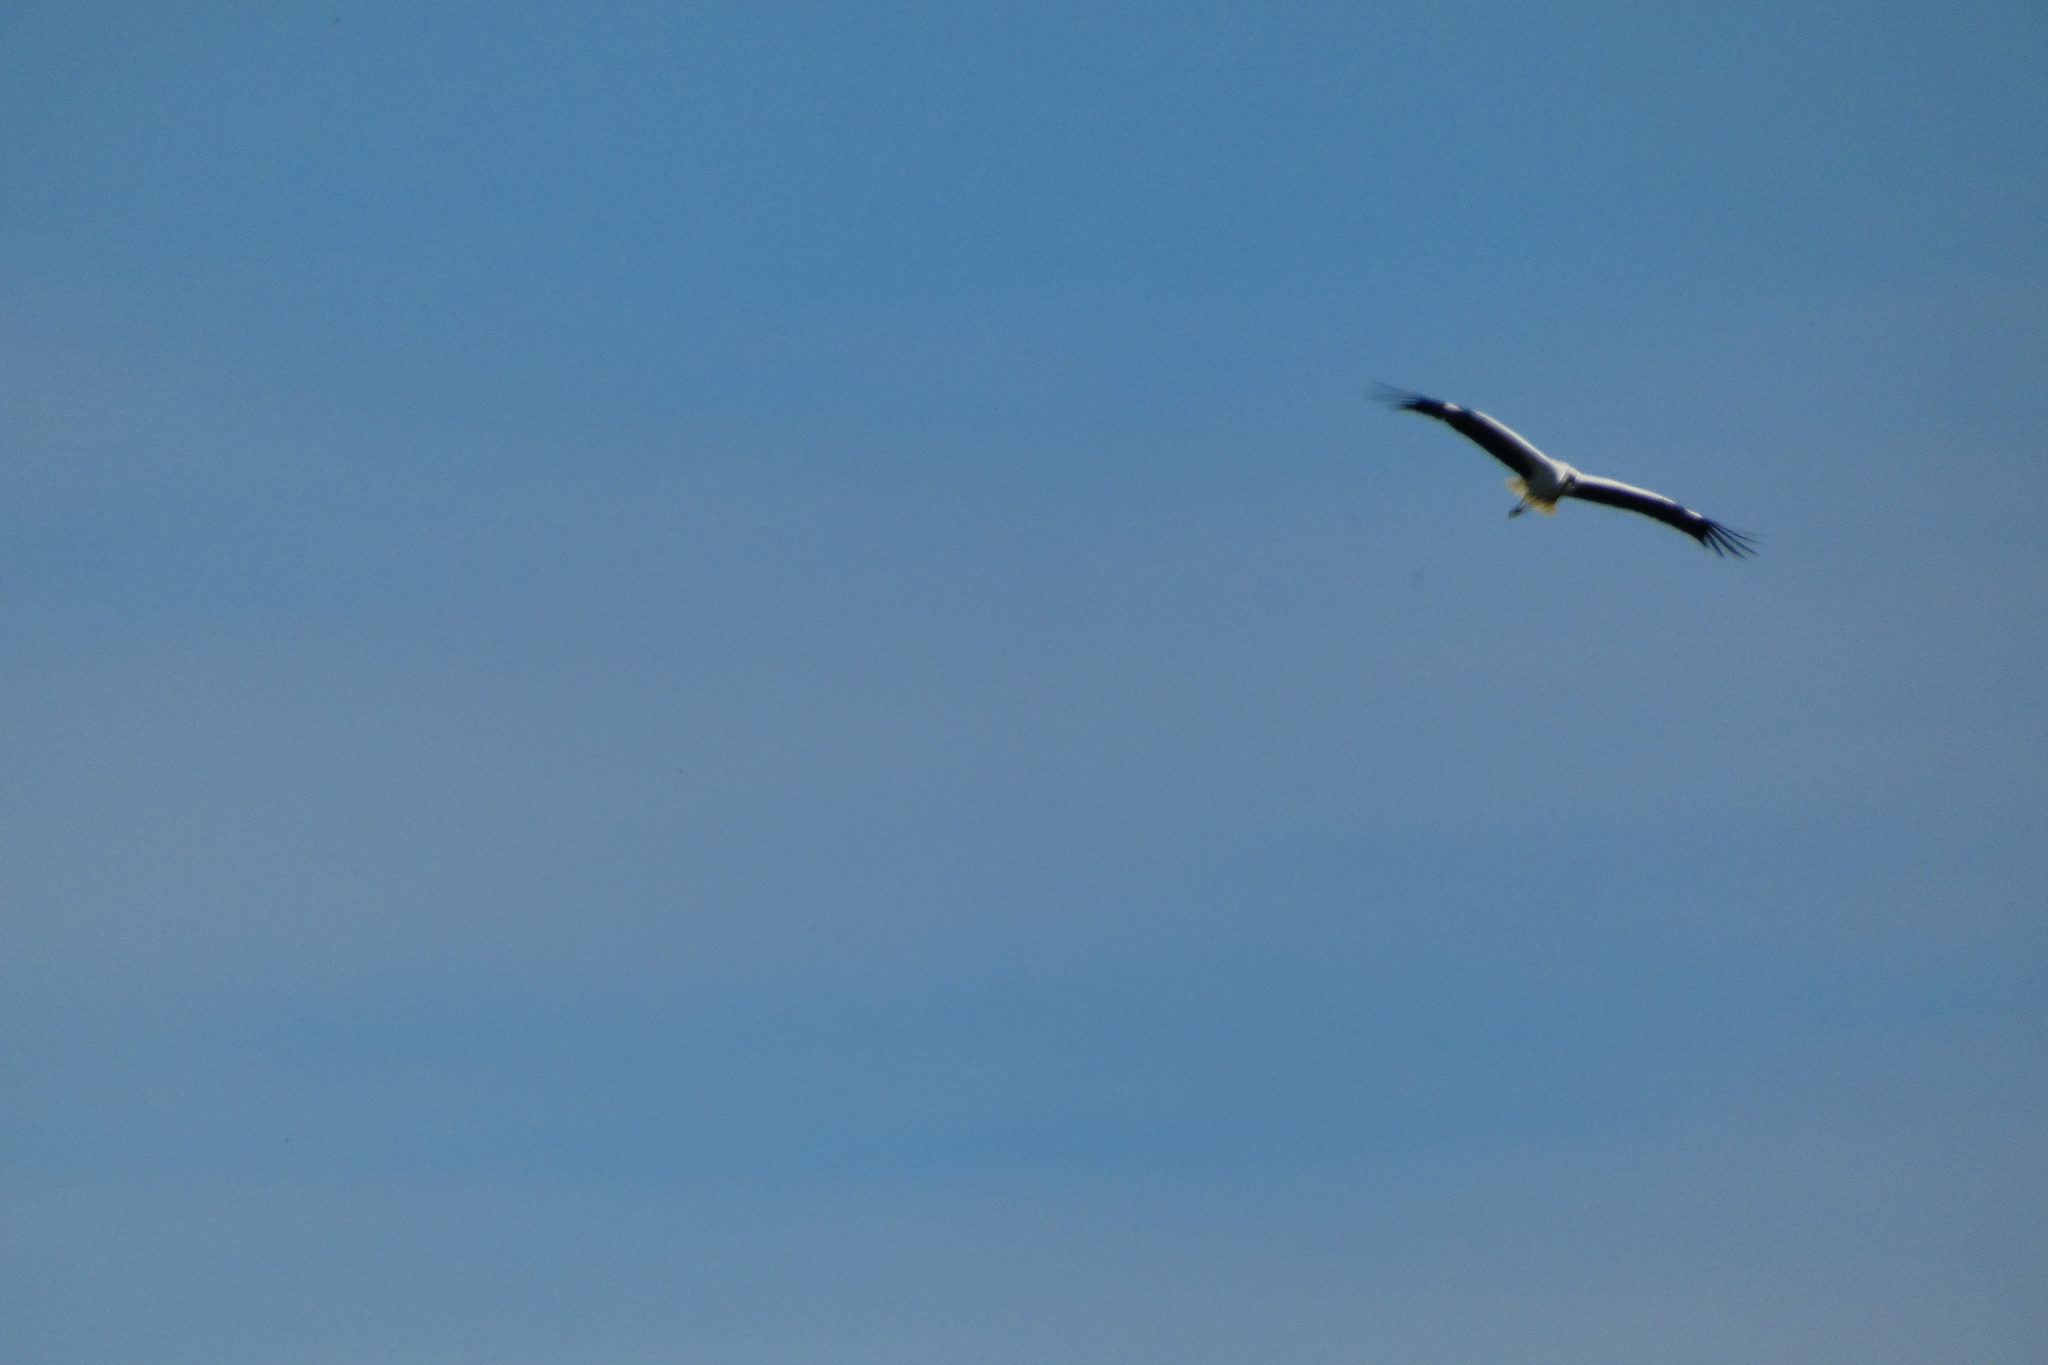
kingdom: Animalia
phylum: Chordata
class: Aves
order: Ciconiiformes
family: Ciconiidae
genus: Ciconia
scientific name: Ciconia ciconia
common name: White stork
